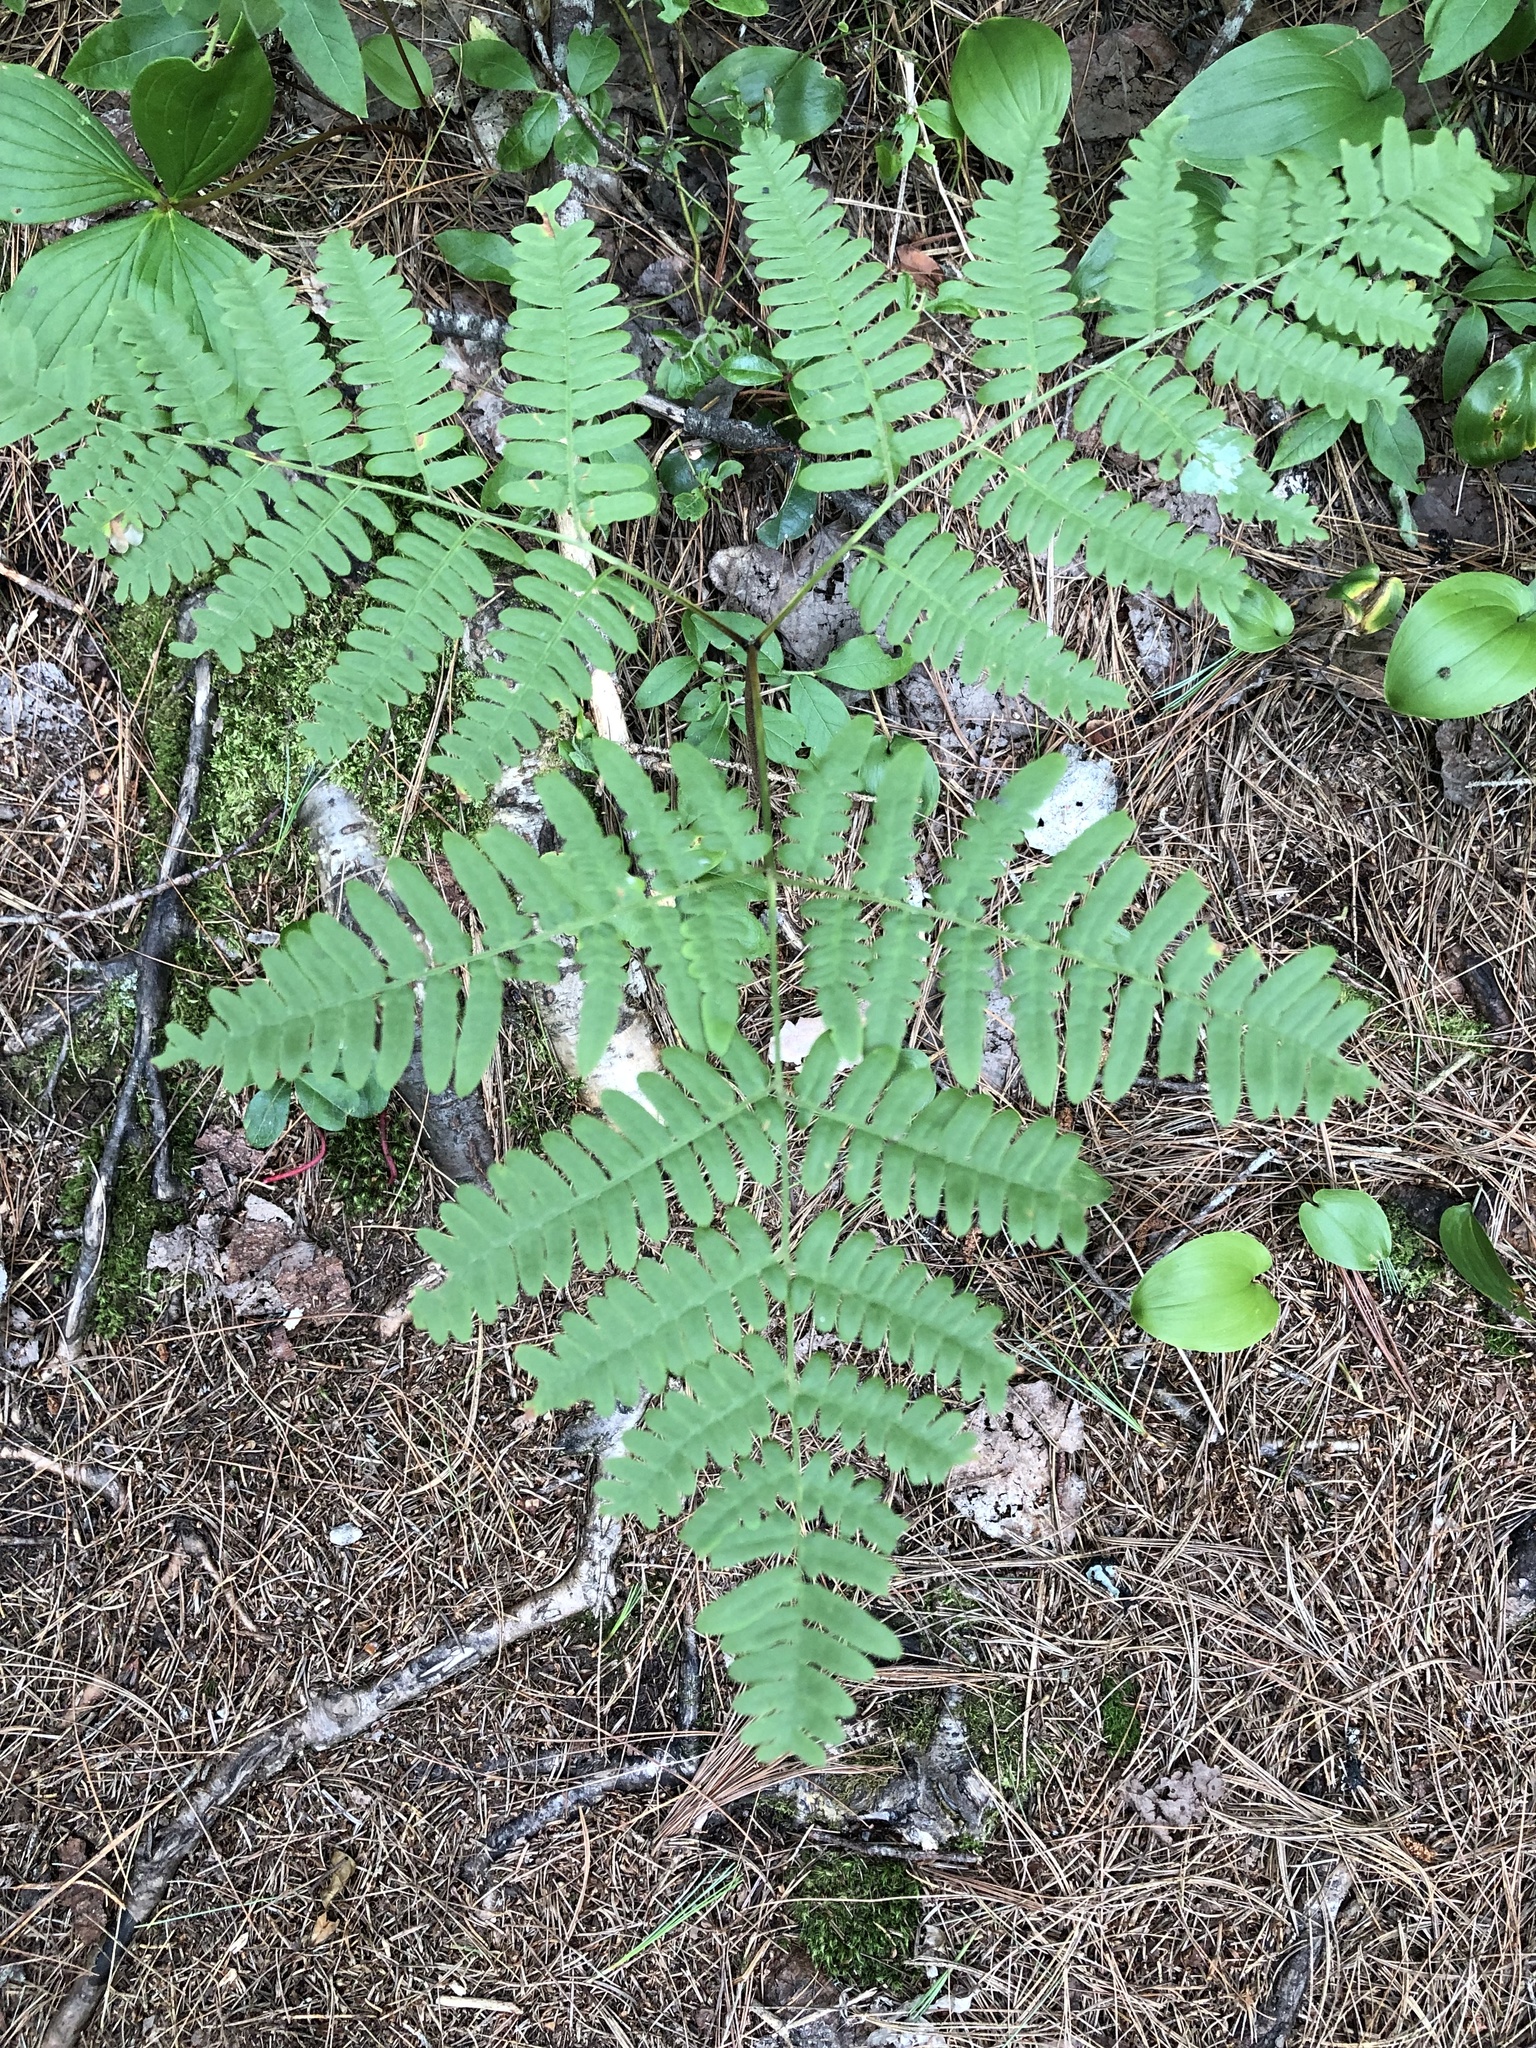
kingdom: Plantae
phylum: Tracheophyta
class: Polypodiopsida
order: Polypodiales
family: Dennstaedtiaceae
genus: Pteridium
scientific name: Pteridium aquilinum
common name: Bracken
